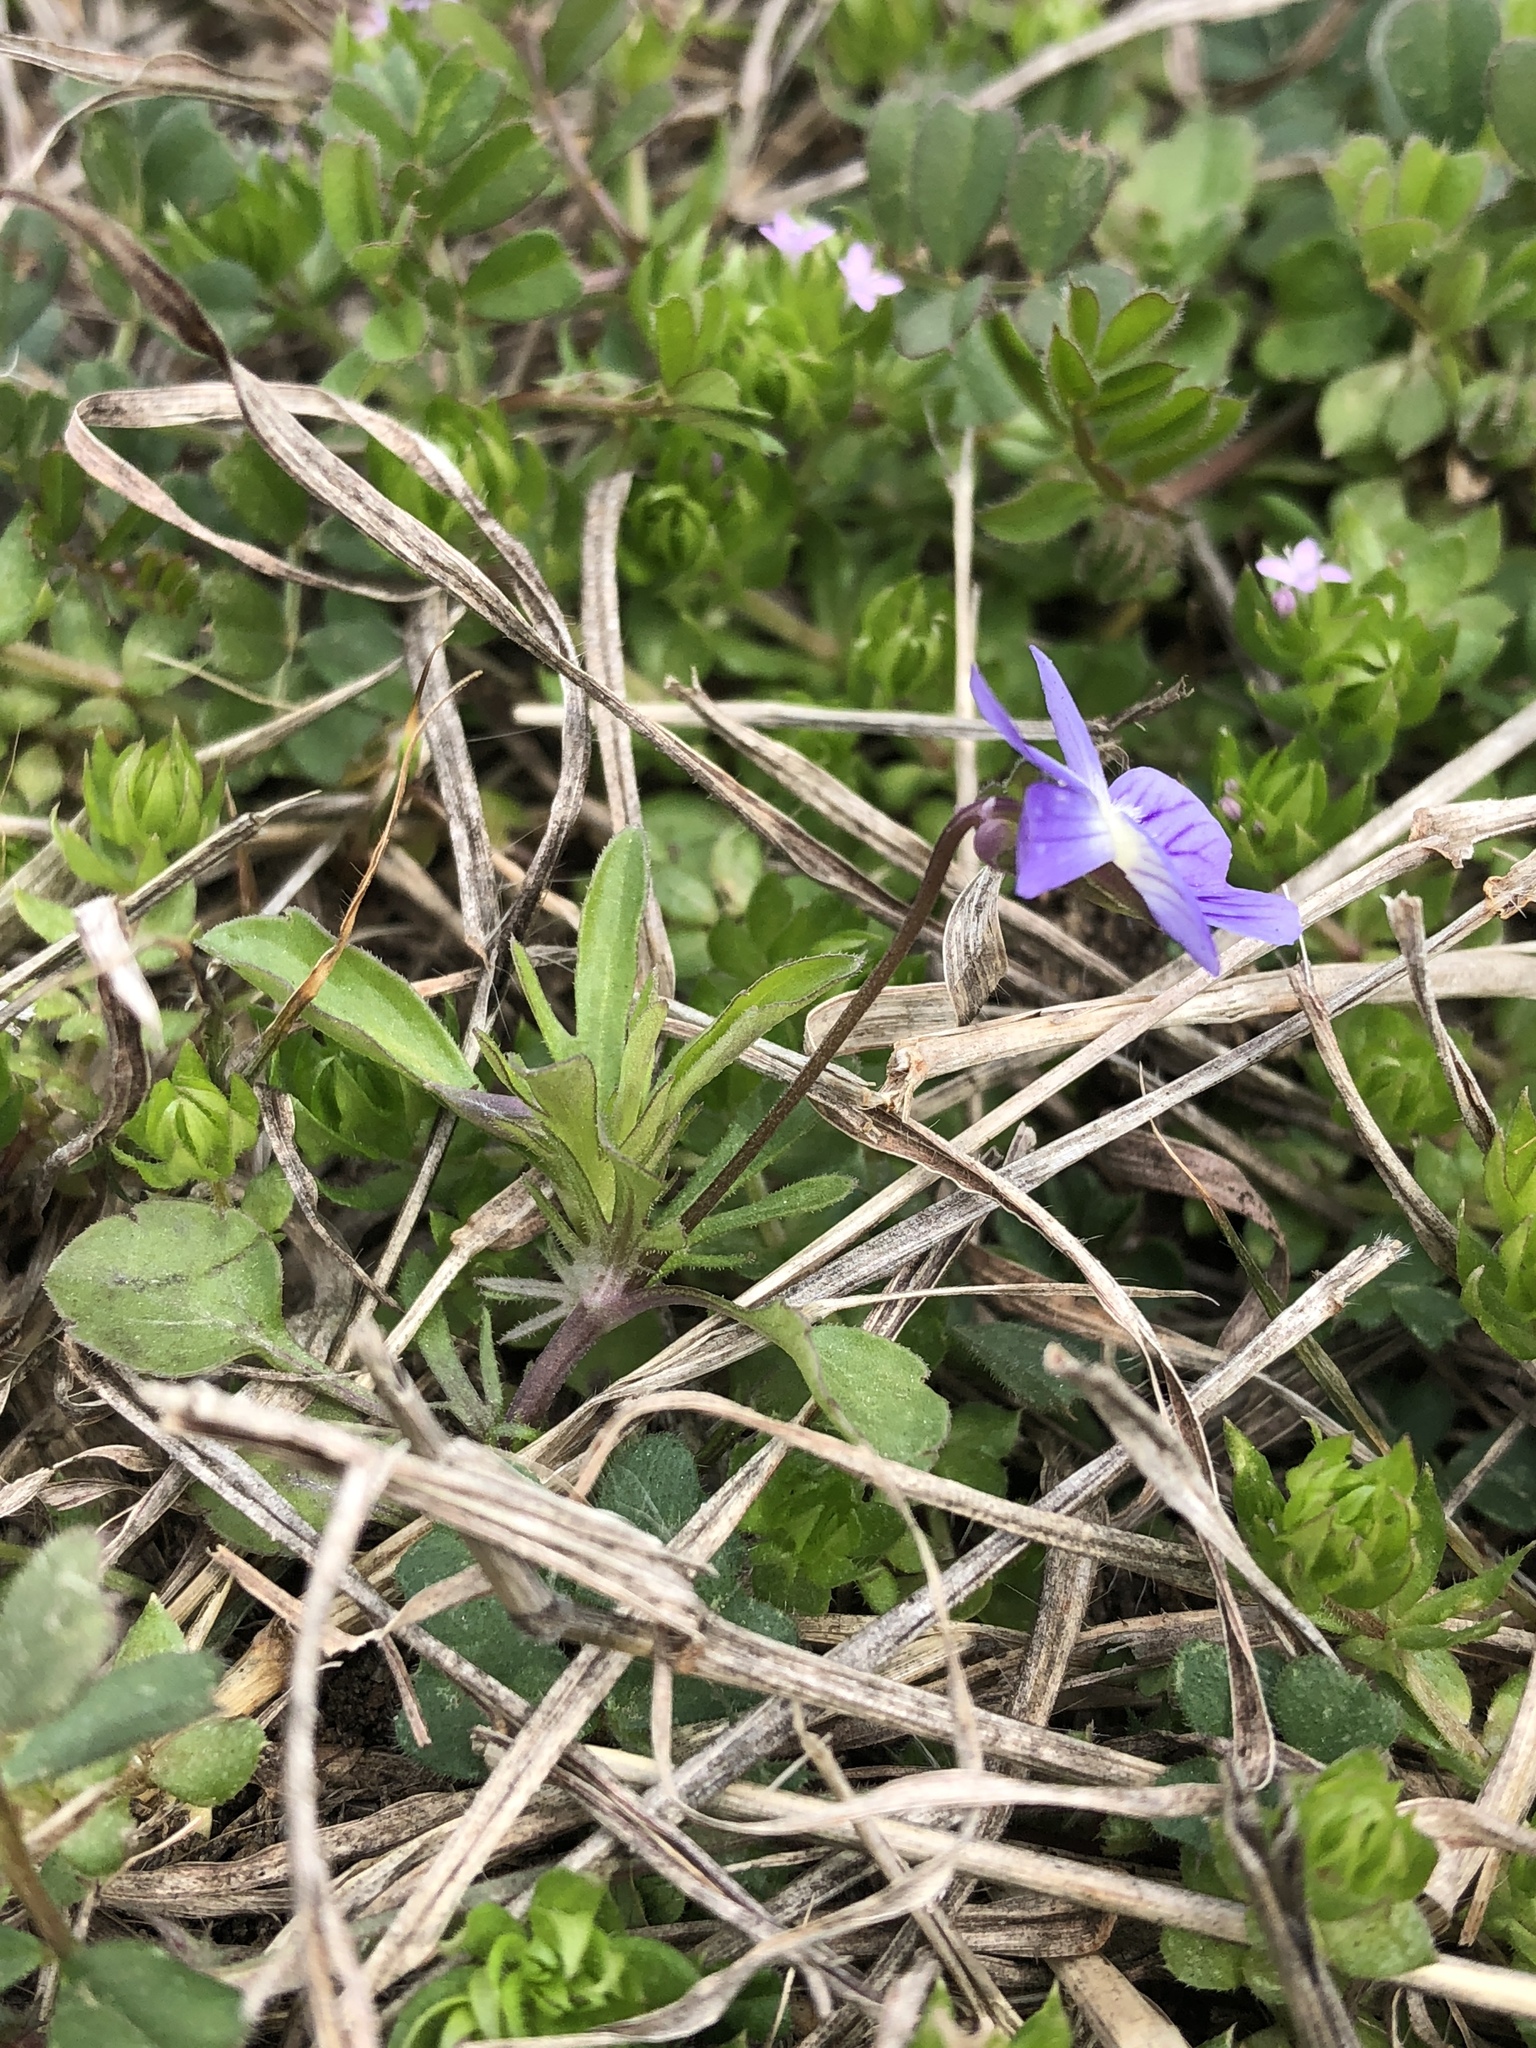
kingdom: Plantae
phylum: Tracheophyta
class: Magnoliopsida
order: Malpighiales
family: Violaceae
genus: Viola
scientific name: Viola rafinesquei
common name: American field pansy
